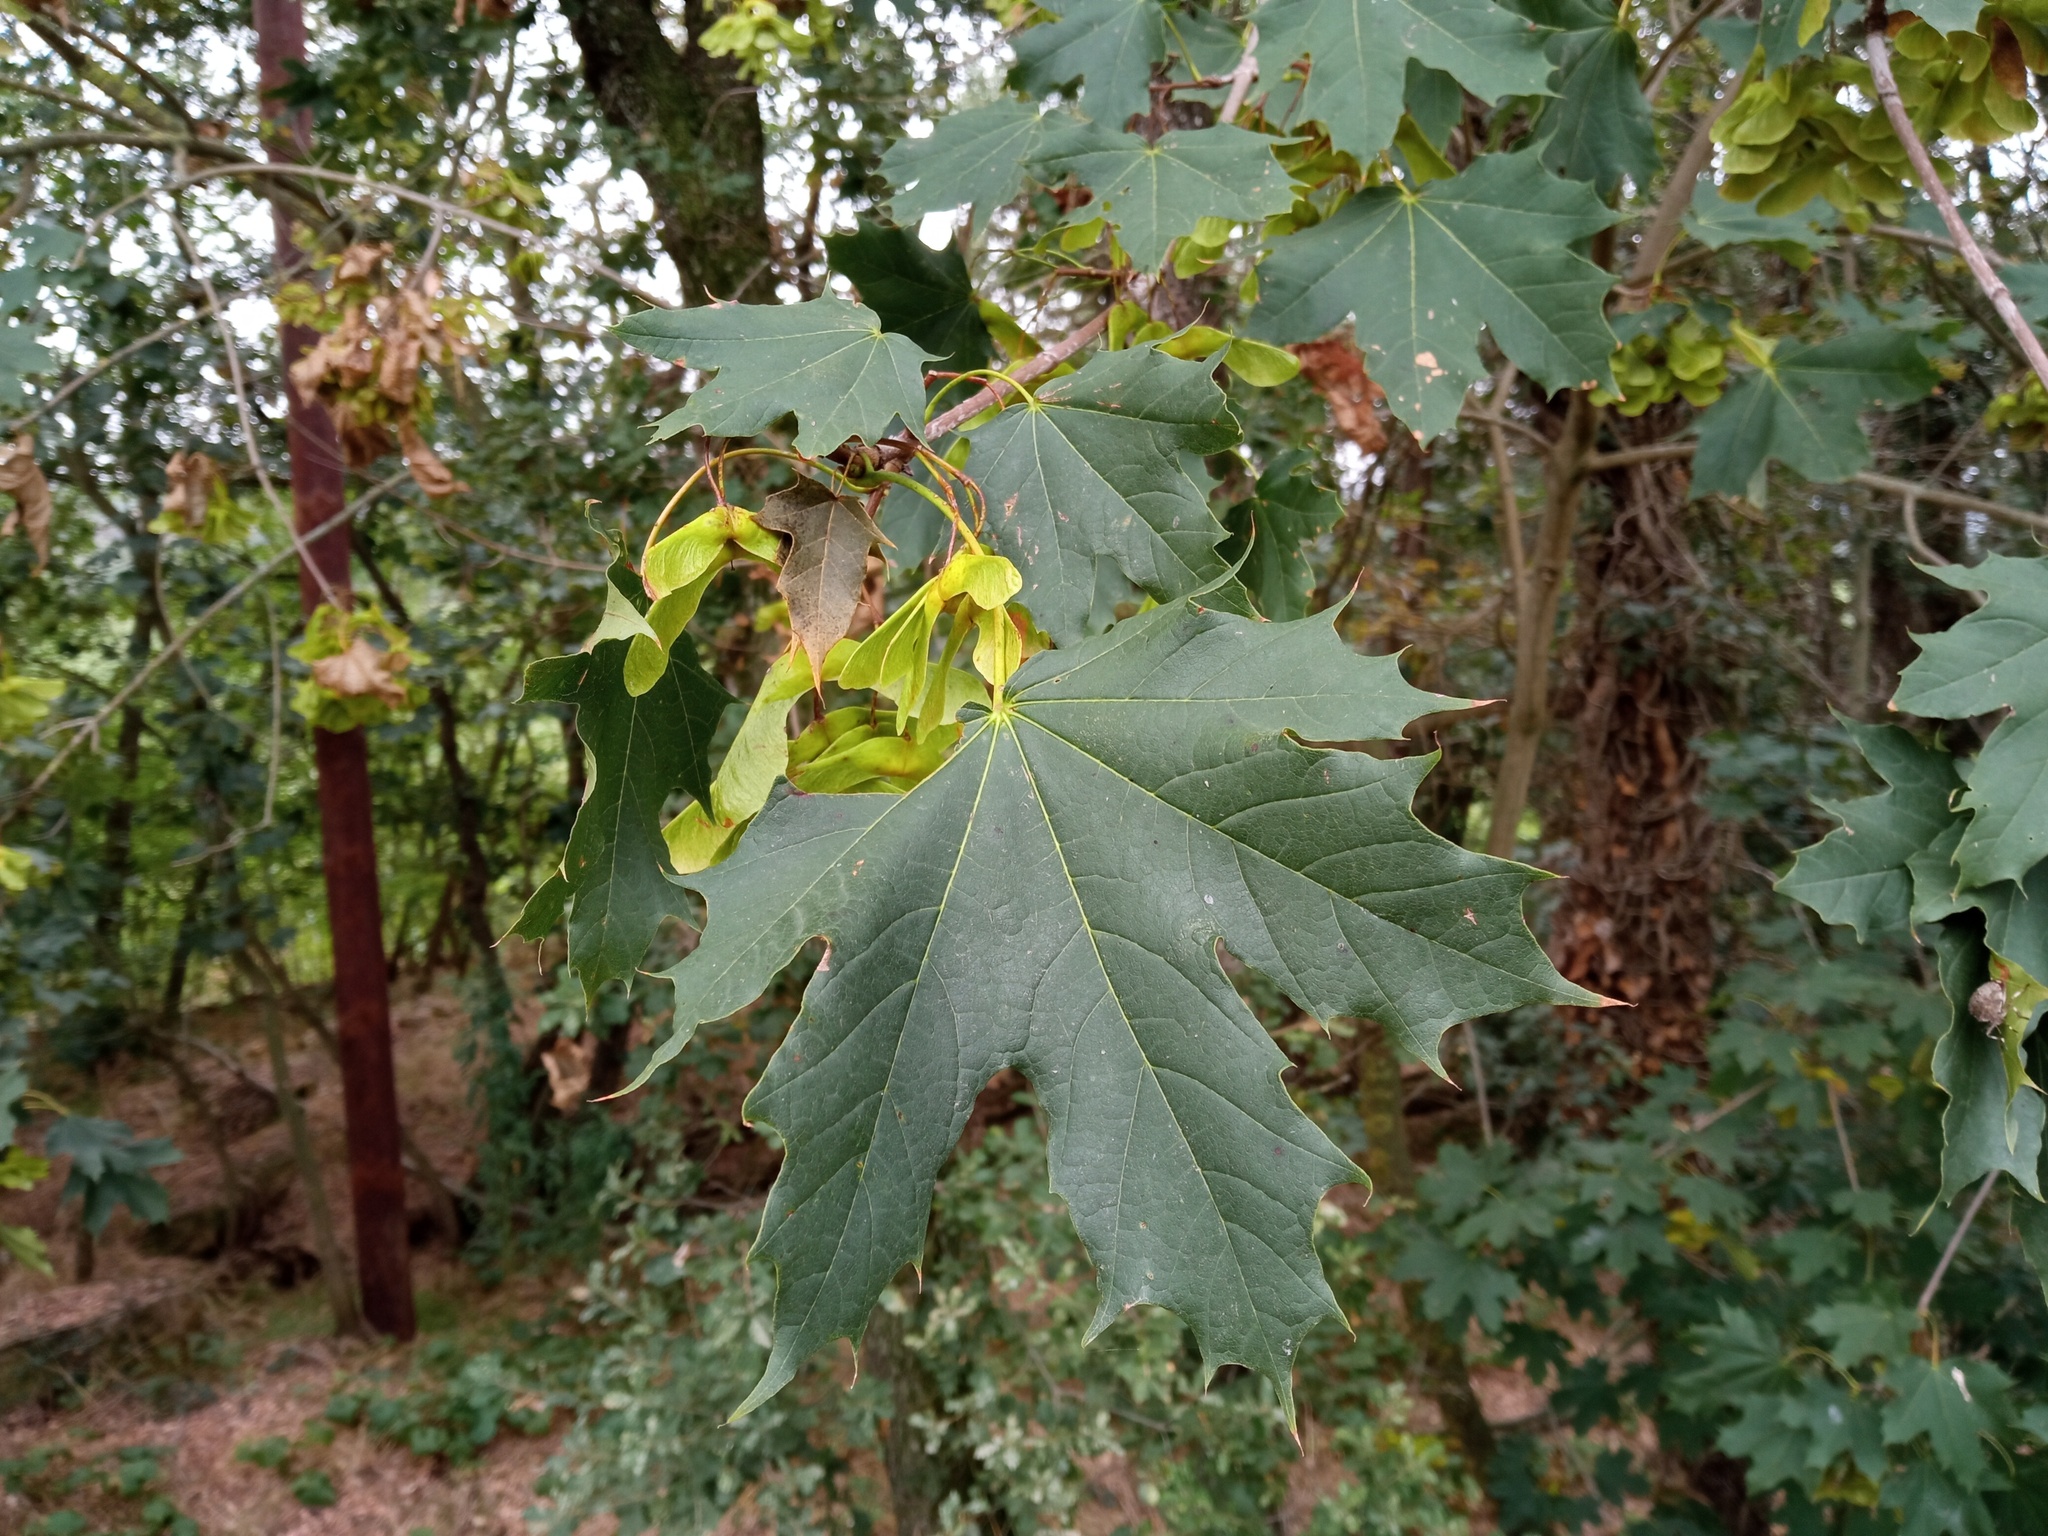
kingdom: Plantae
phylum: Tracheophyta
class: Magnoliopsida
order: Sapindales
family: Sapindaceae
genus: Acer
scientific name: Acer platanoides
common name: Norway maple
